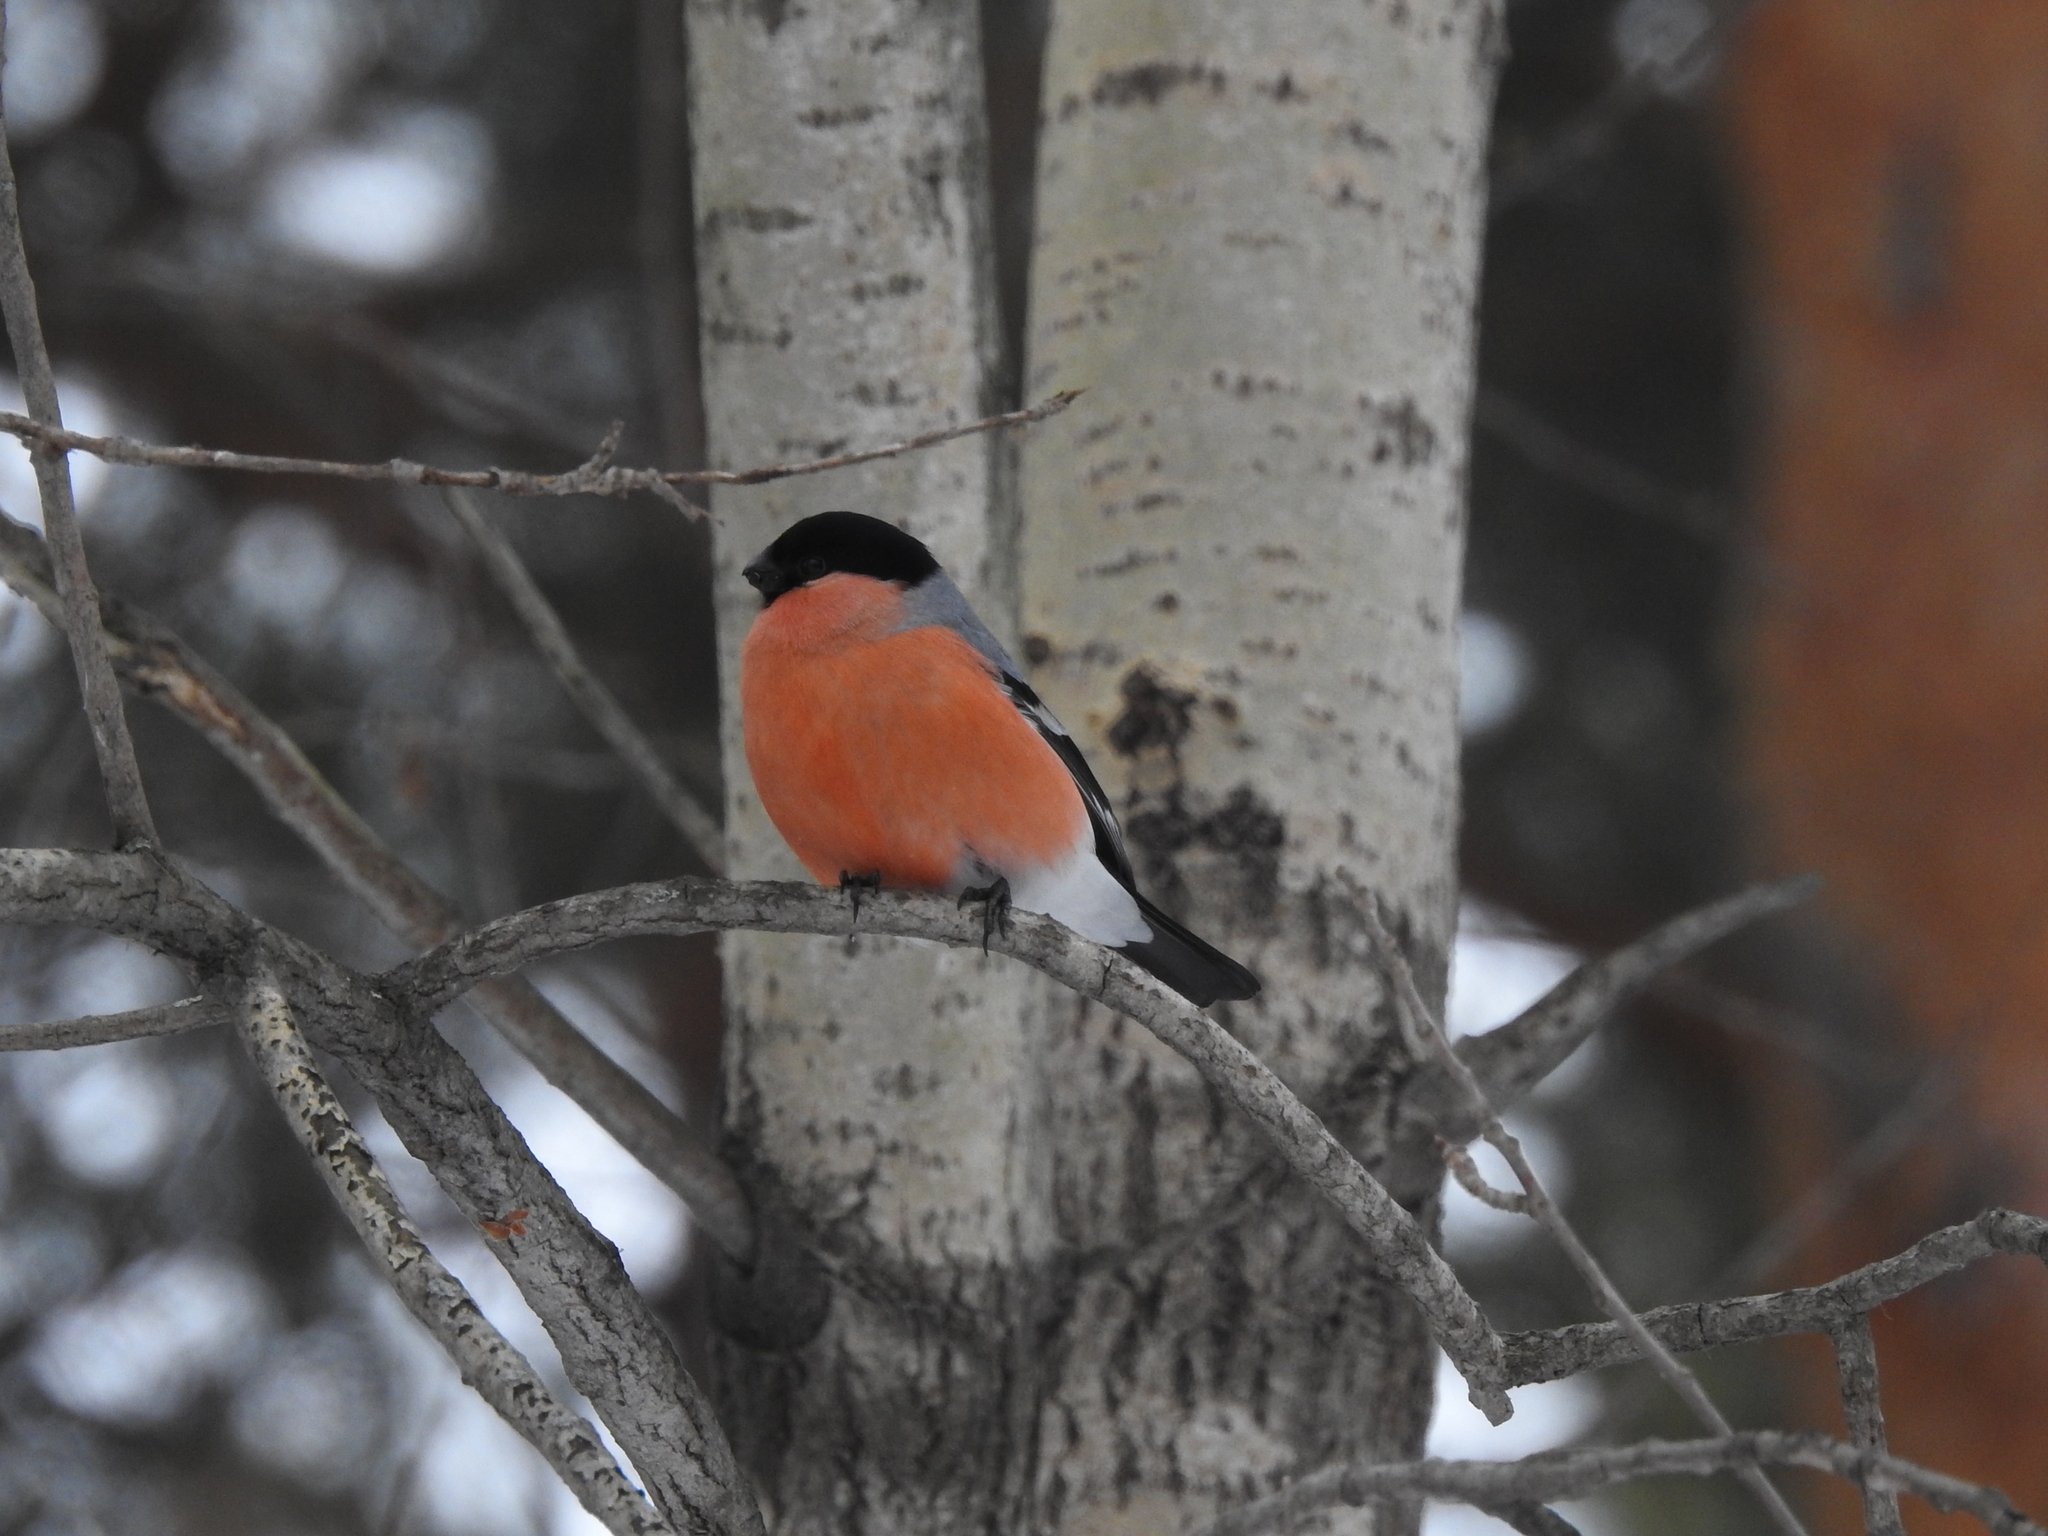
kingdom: Animalia
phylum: Chordata
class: Aves
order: Passeriformes
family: Fringillidae
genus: Pyrrhula
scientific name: Pyrrhula pyrrhula
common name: Eurasian bullfinch
